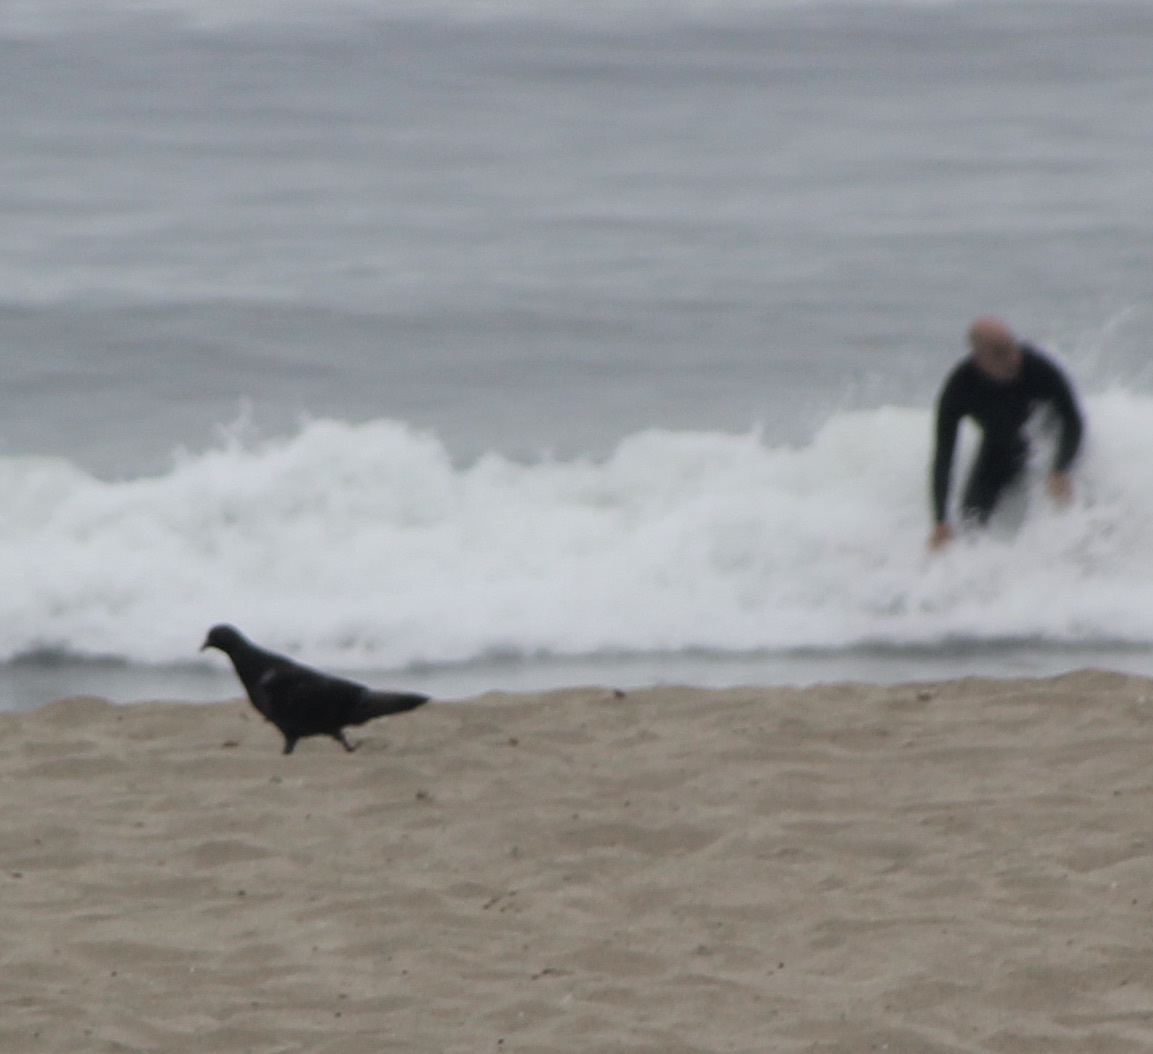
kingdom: Animalia
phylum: Chordata
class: Aves
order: Columbiformes
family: Columbidae
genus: Columba
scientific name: Columba livia
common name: Rock pigeon
